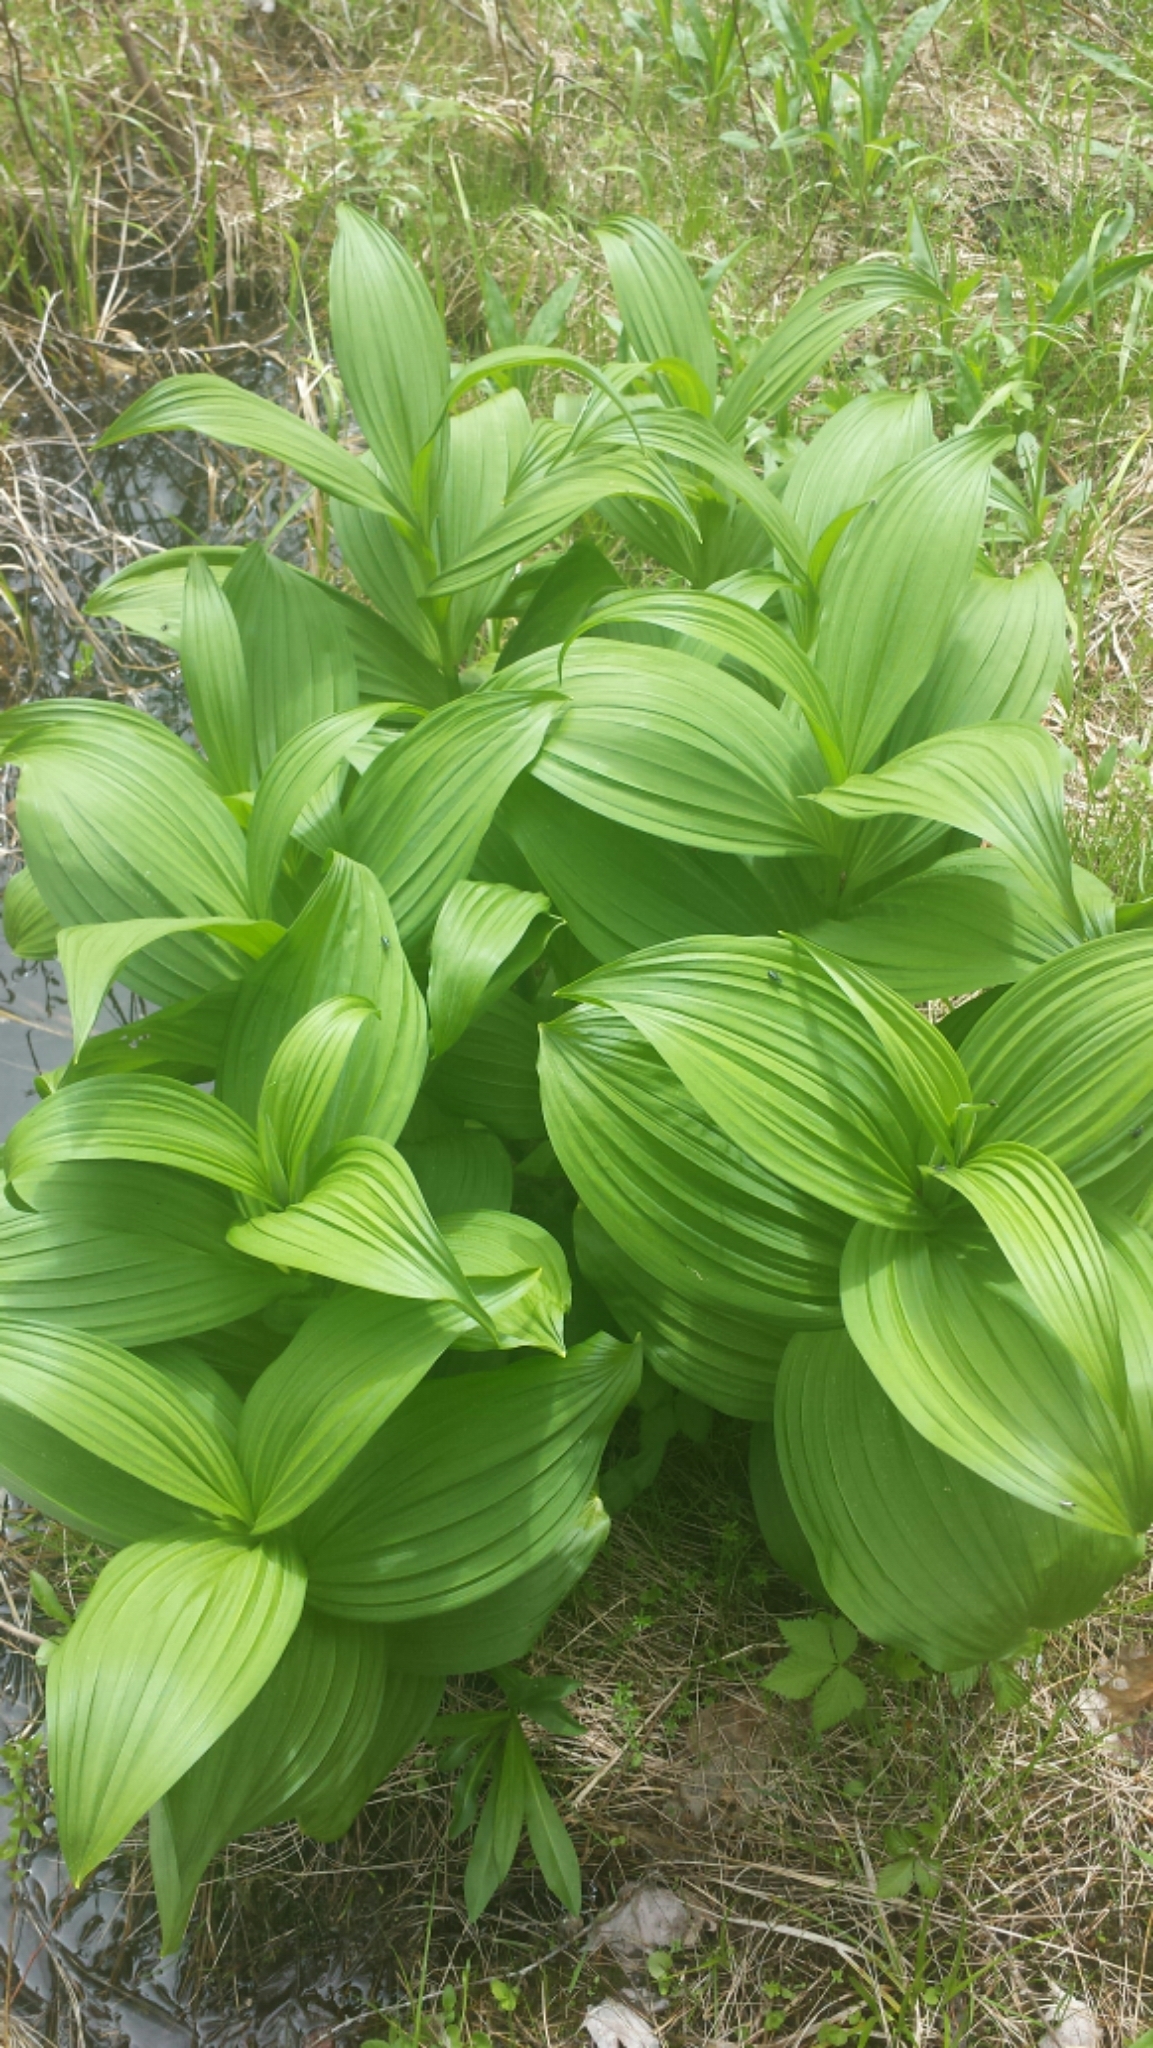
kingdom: Plantae
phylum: Tracheophyta
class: Liliopsida
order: Liliales
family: Melanthiaceae
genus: Veratrum
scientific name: Veratrum viride
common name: American false hellebore
